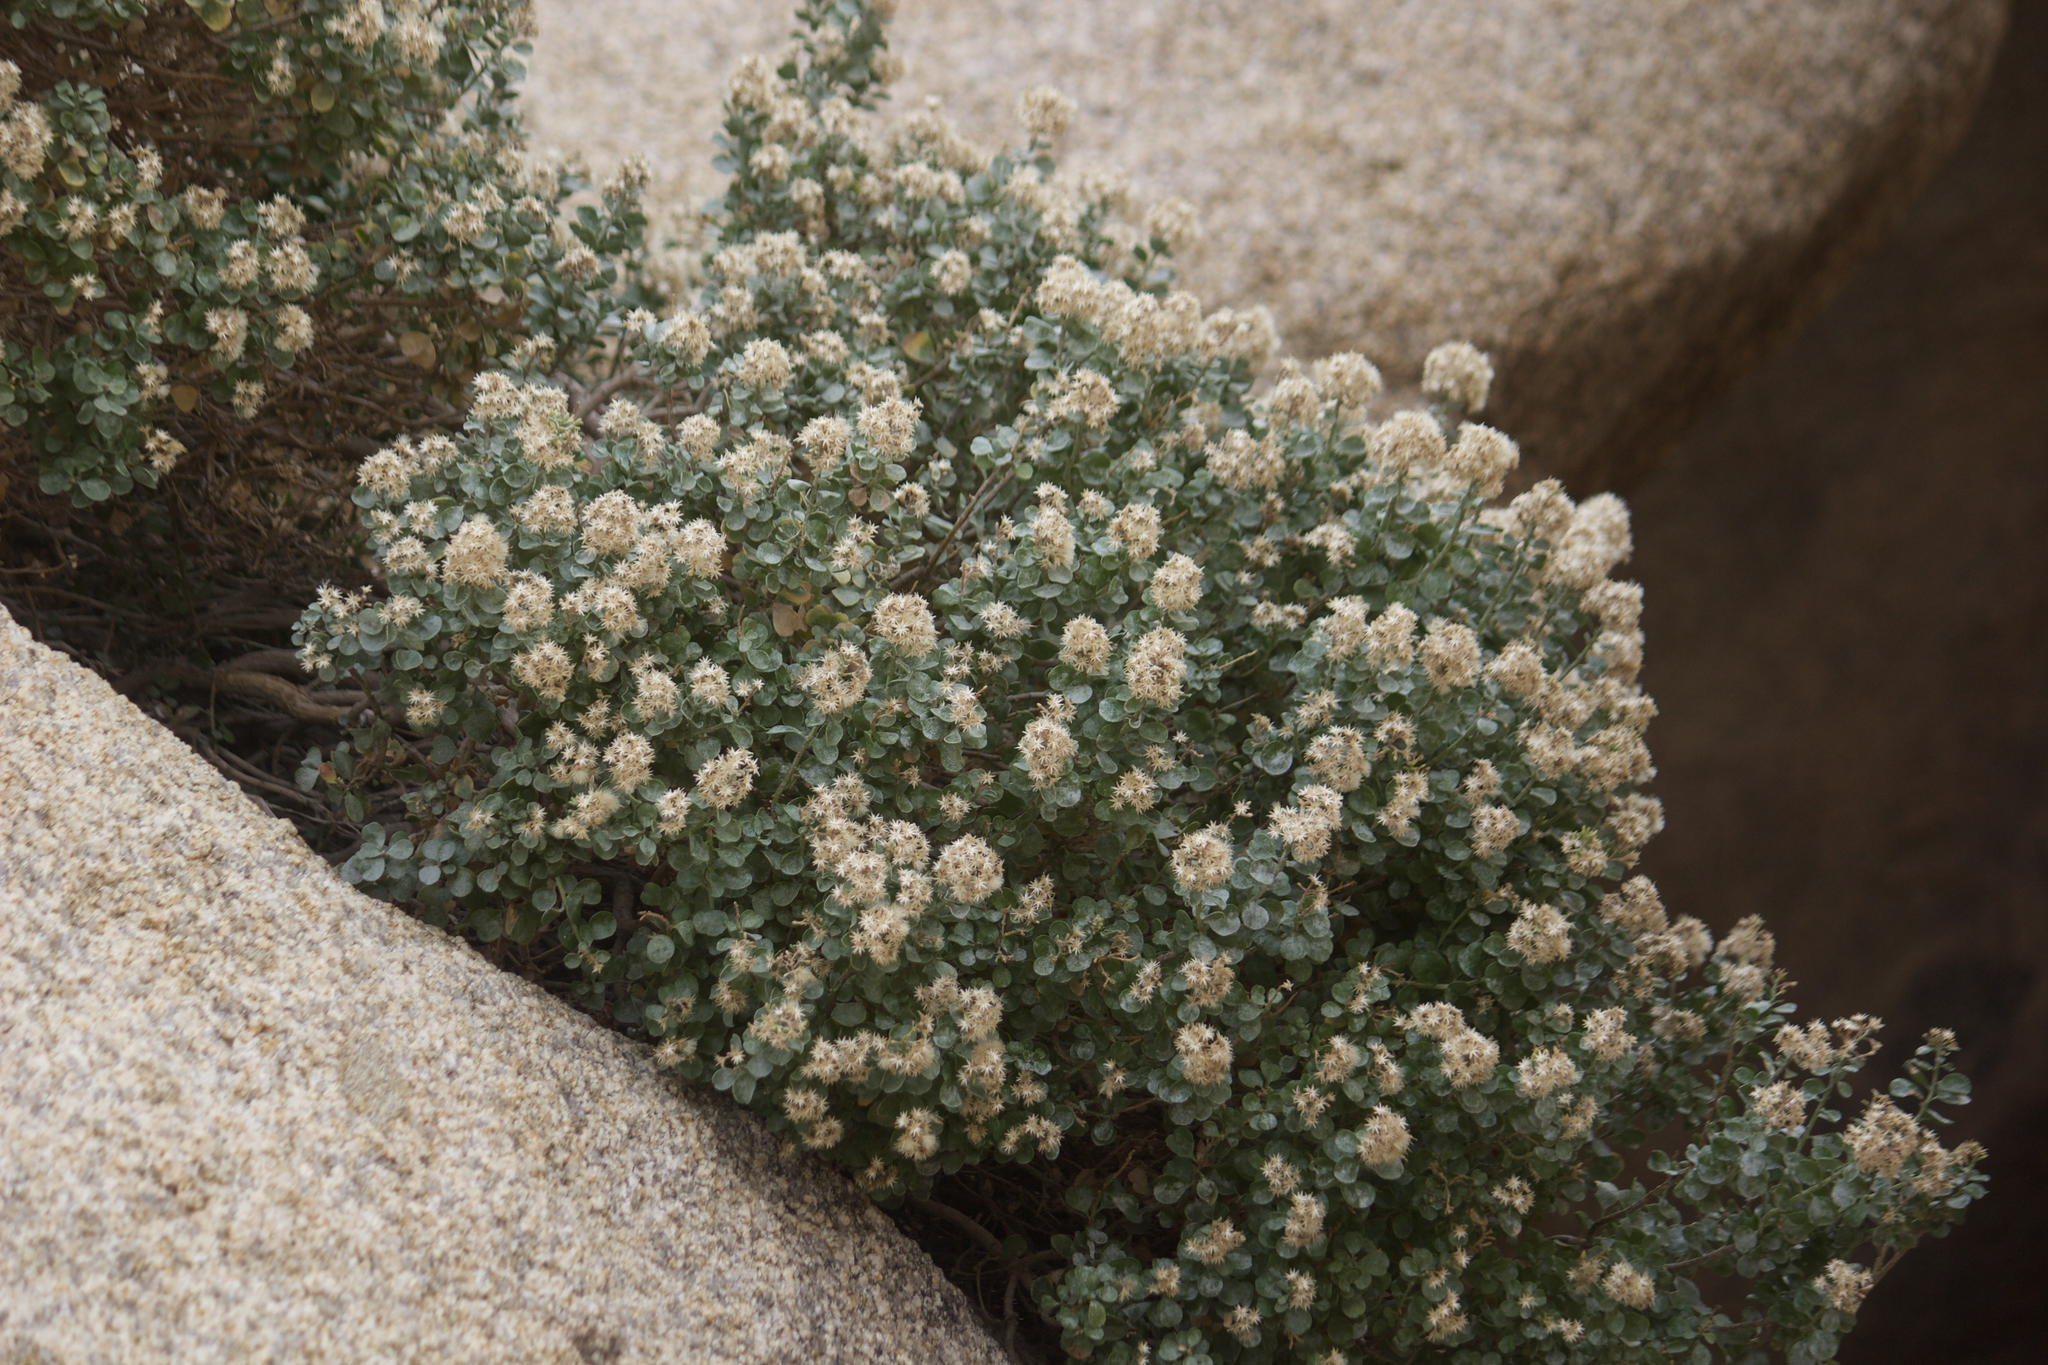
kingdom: Plantae
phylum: Tracheophyta
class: Magnoliopsida
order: Asterales
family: Asteraceae
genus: Ericameria
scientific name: Ericameria cuneata
